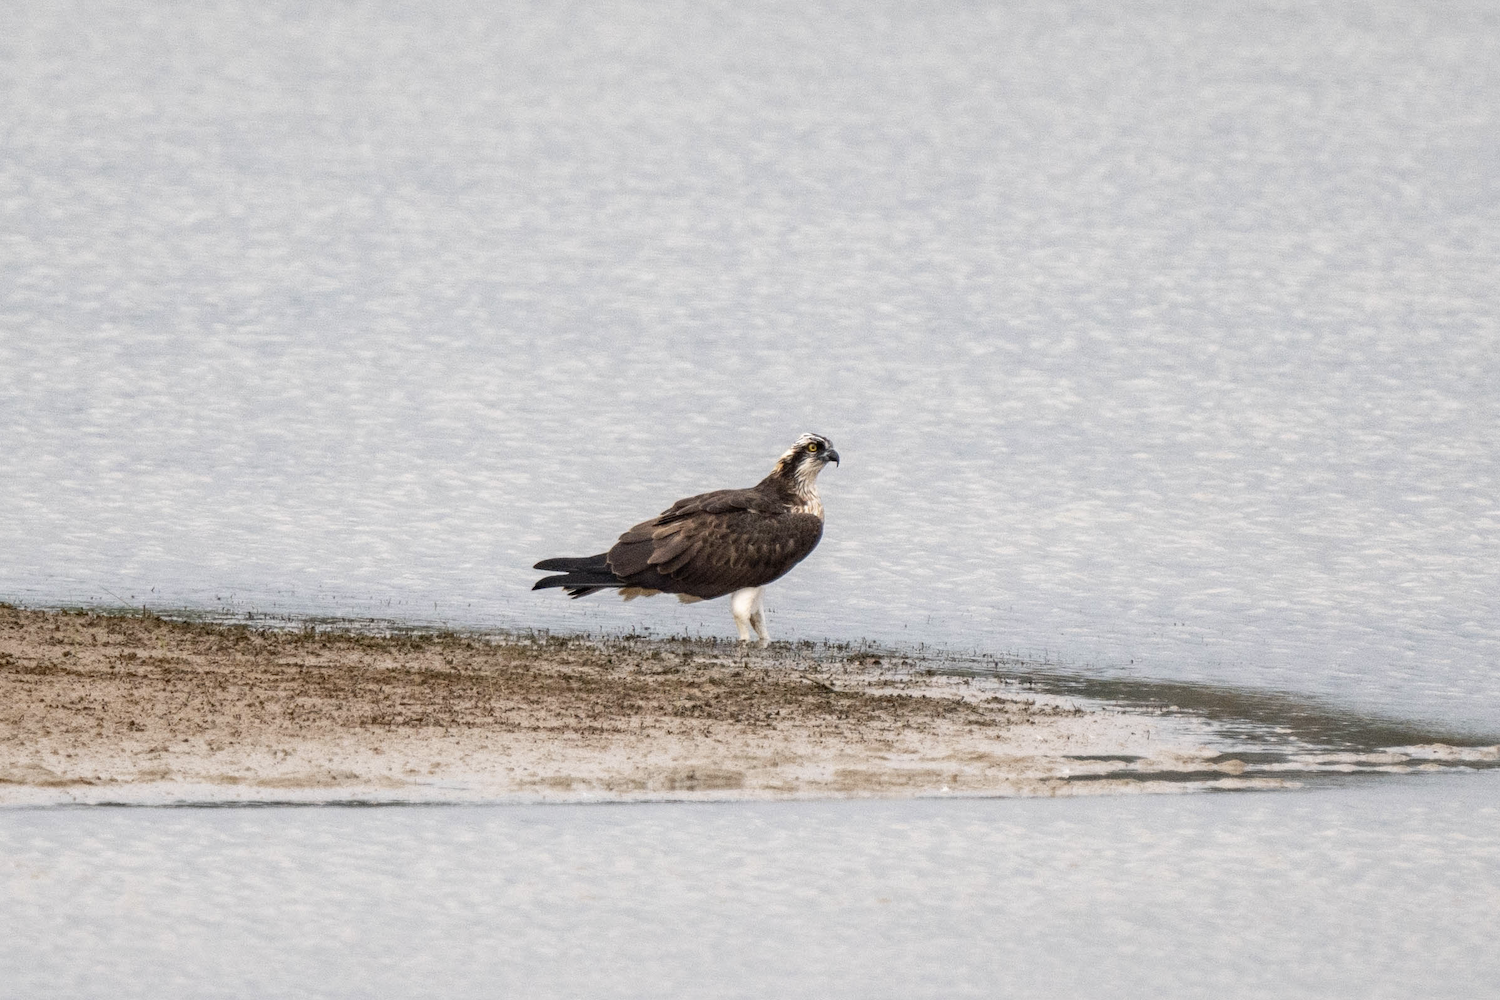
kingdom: Animalia
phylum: Chordata
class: Aves
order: Accipitriformes
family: Pandionidae
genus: Pandion
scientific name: Pandion haliaetus
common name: Osprey
